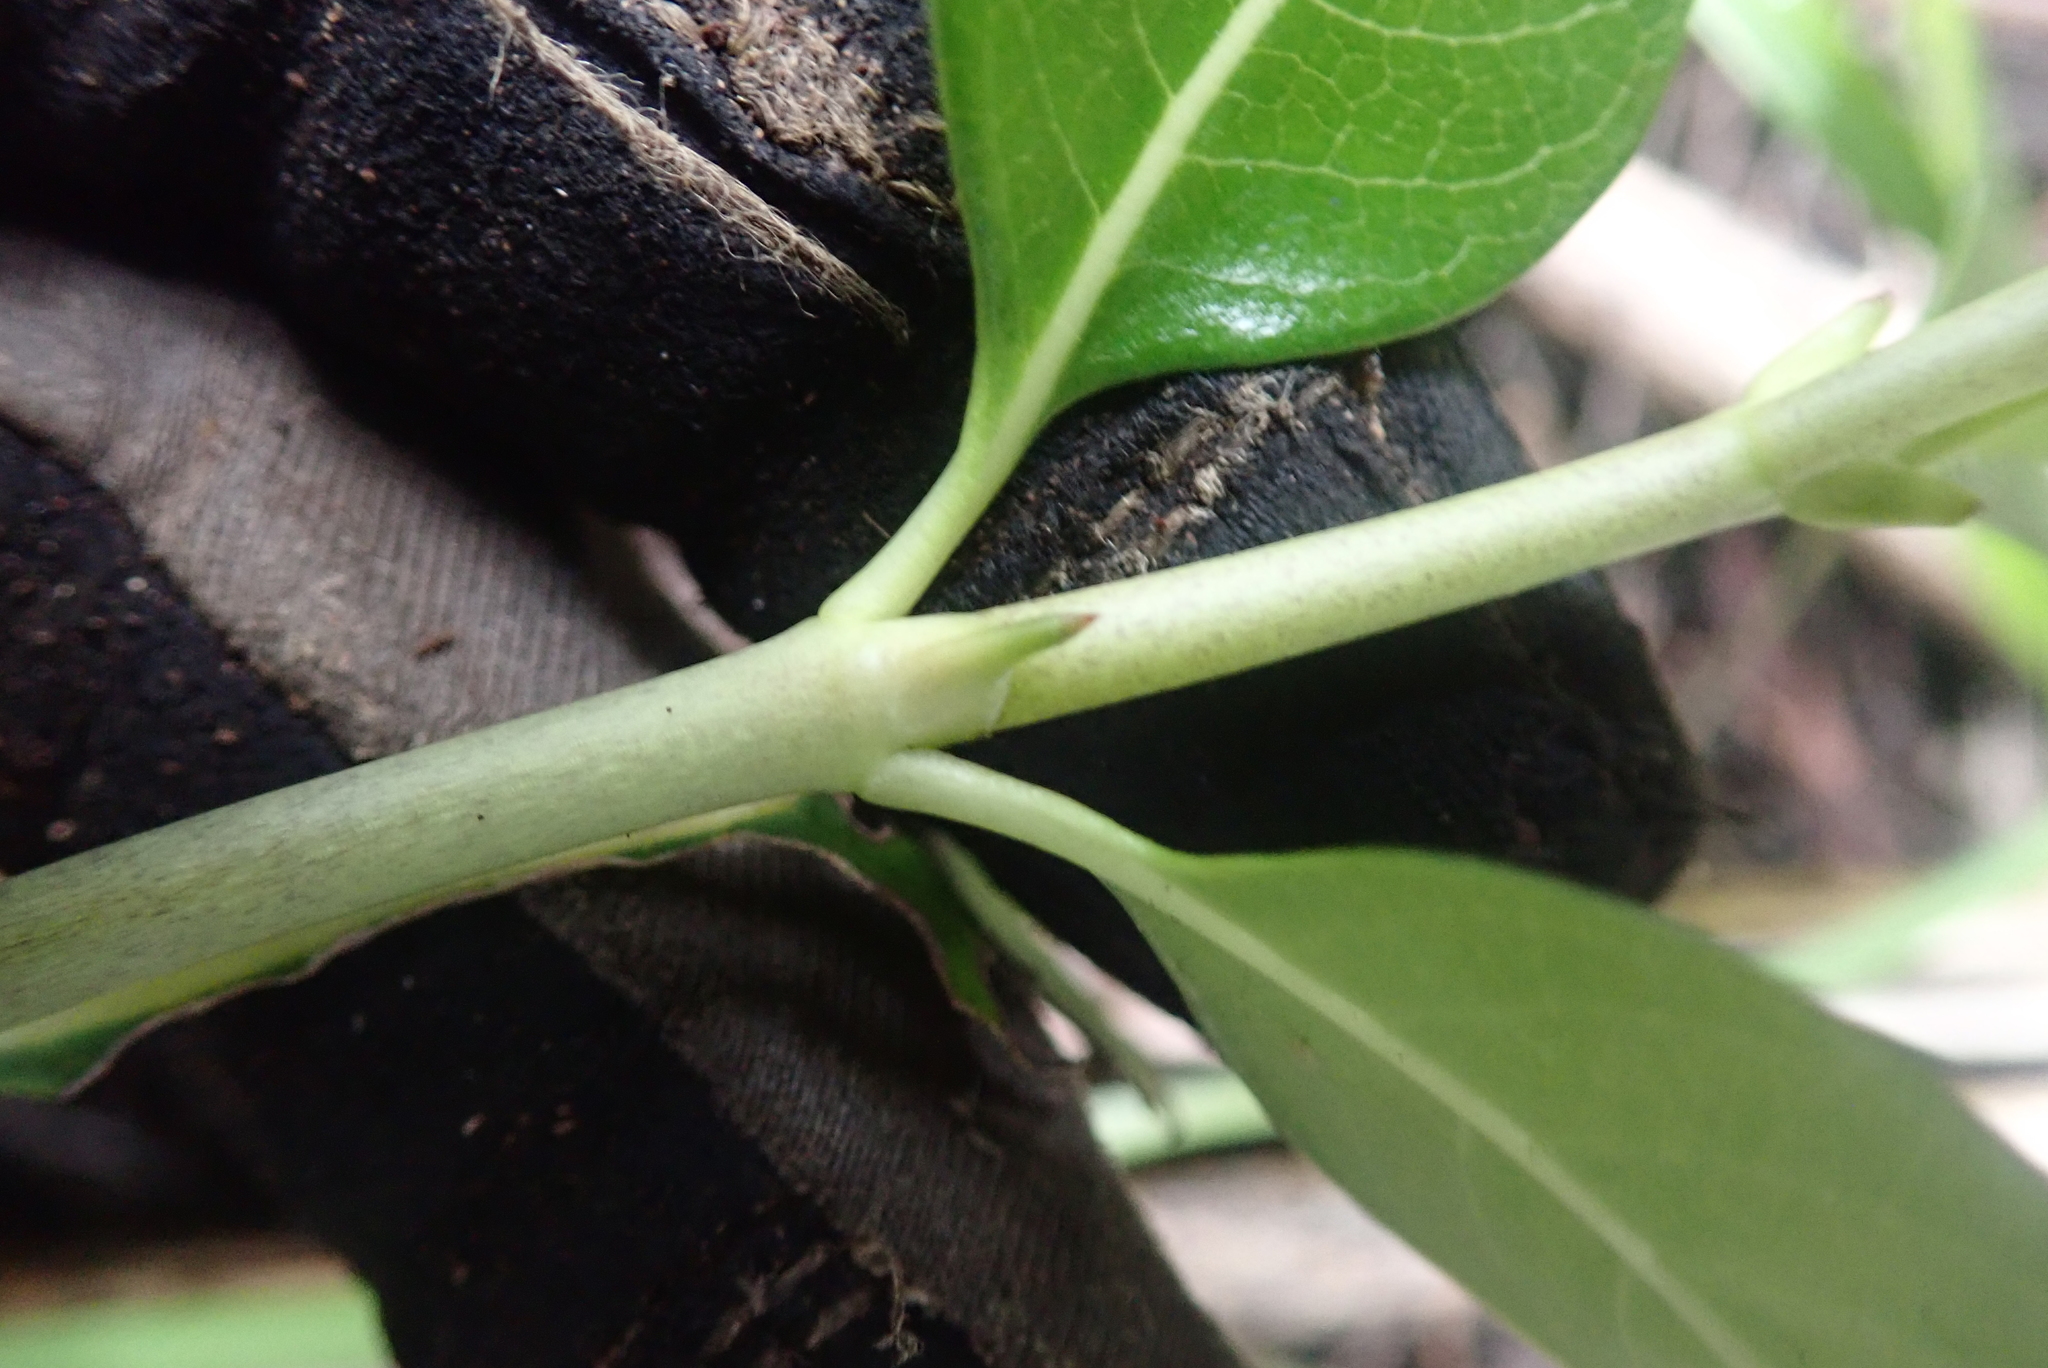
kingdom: Plantae
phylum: Tracheophyta
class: Magnoliopsida
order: Gentianales
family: Rubiaceae
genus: Coprosma
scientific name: Coprosma macrocarpa
